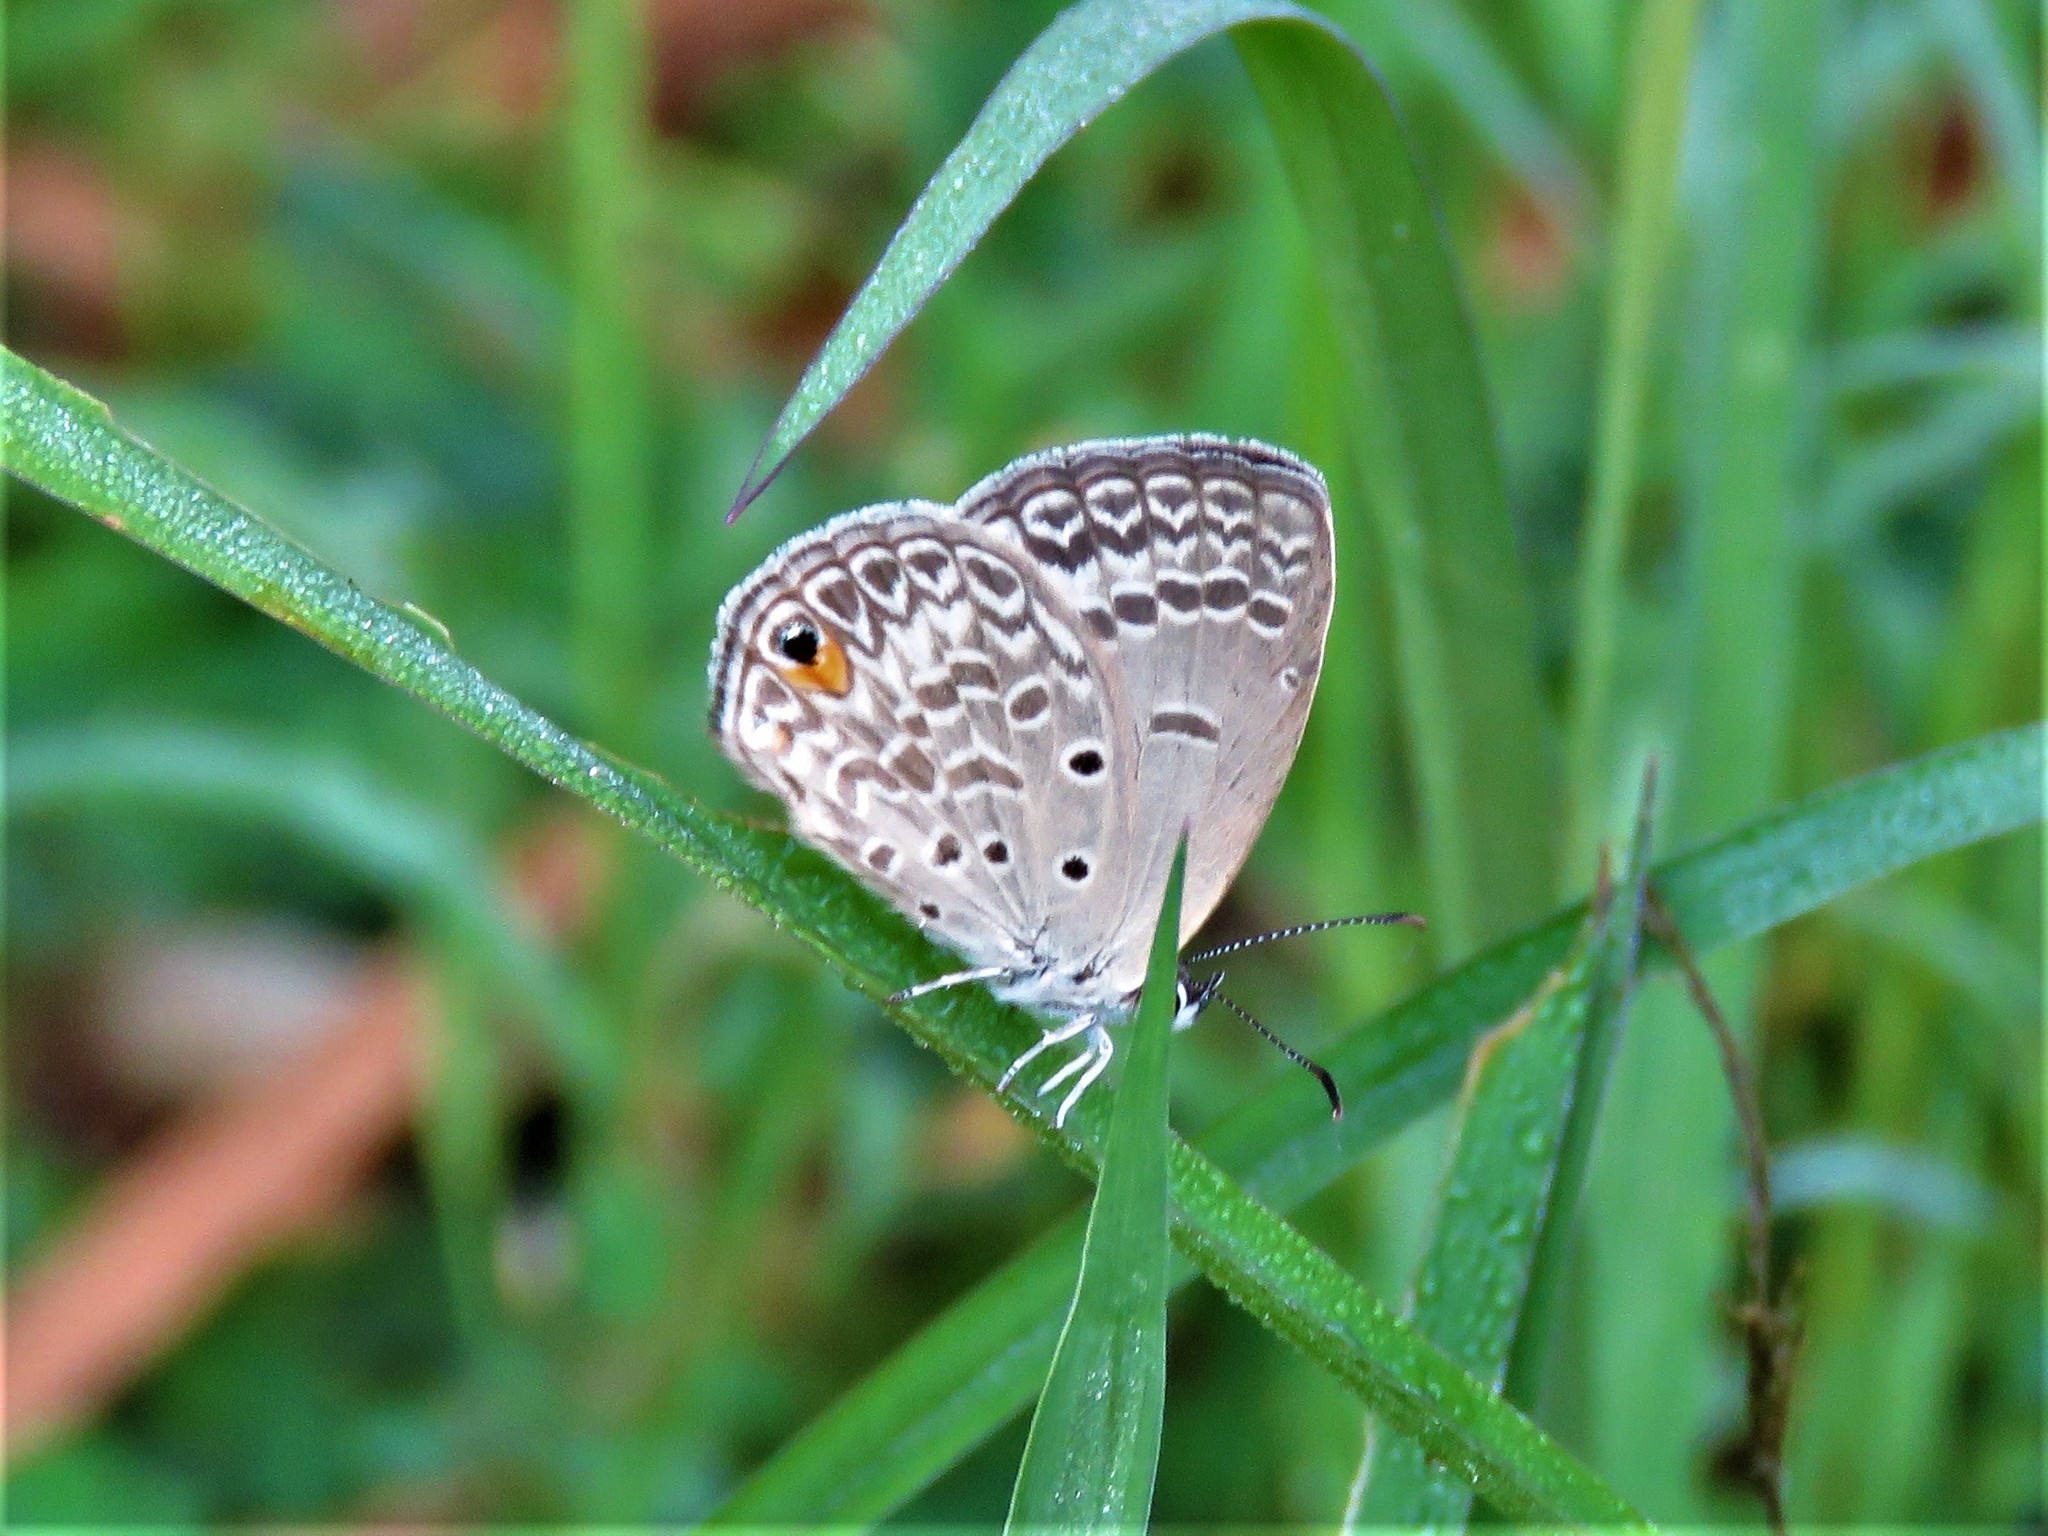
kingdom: Animalia
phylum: Arthropoda
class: Insecta
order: Lepidoptera
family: Lycaenidae
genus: Euchrysops
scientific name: Euchrysops malathana
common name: Common smoky blue
